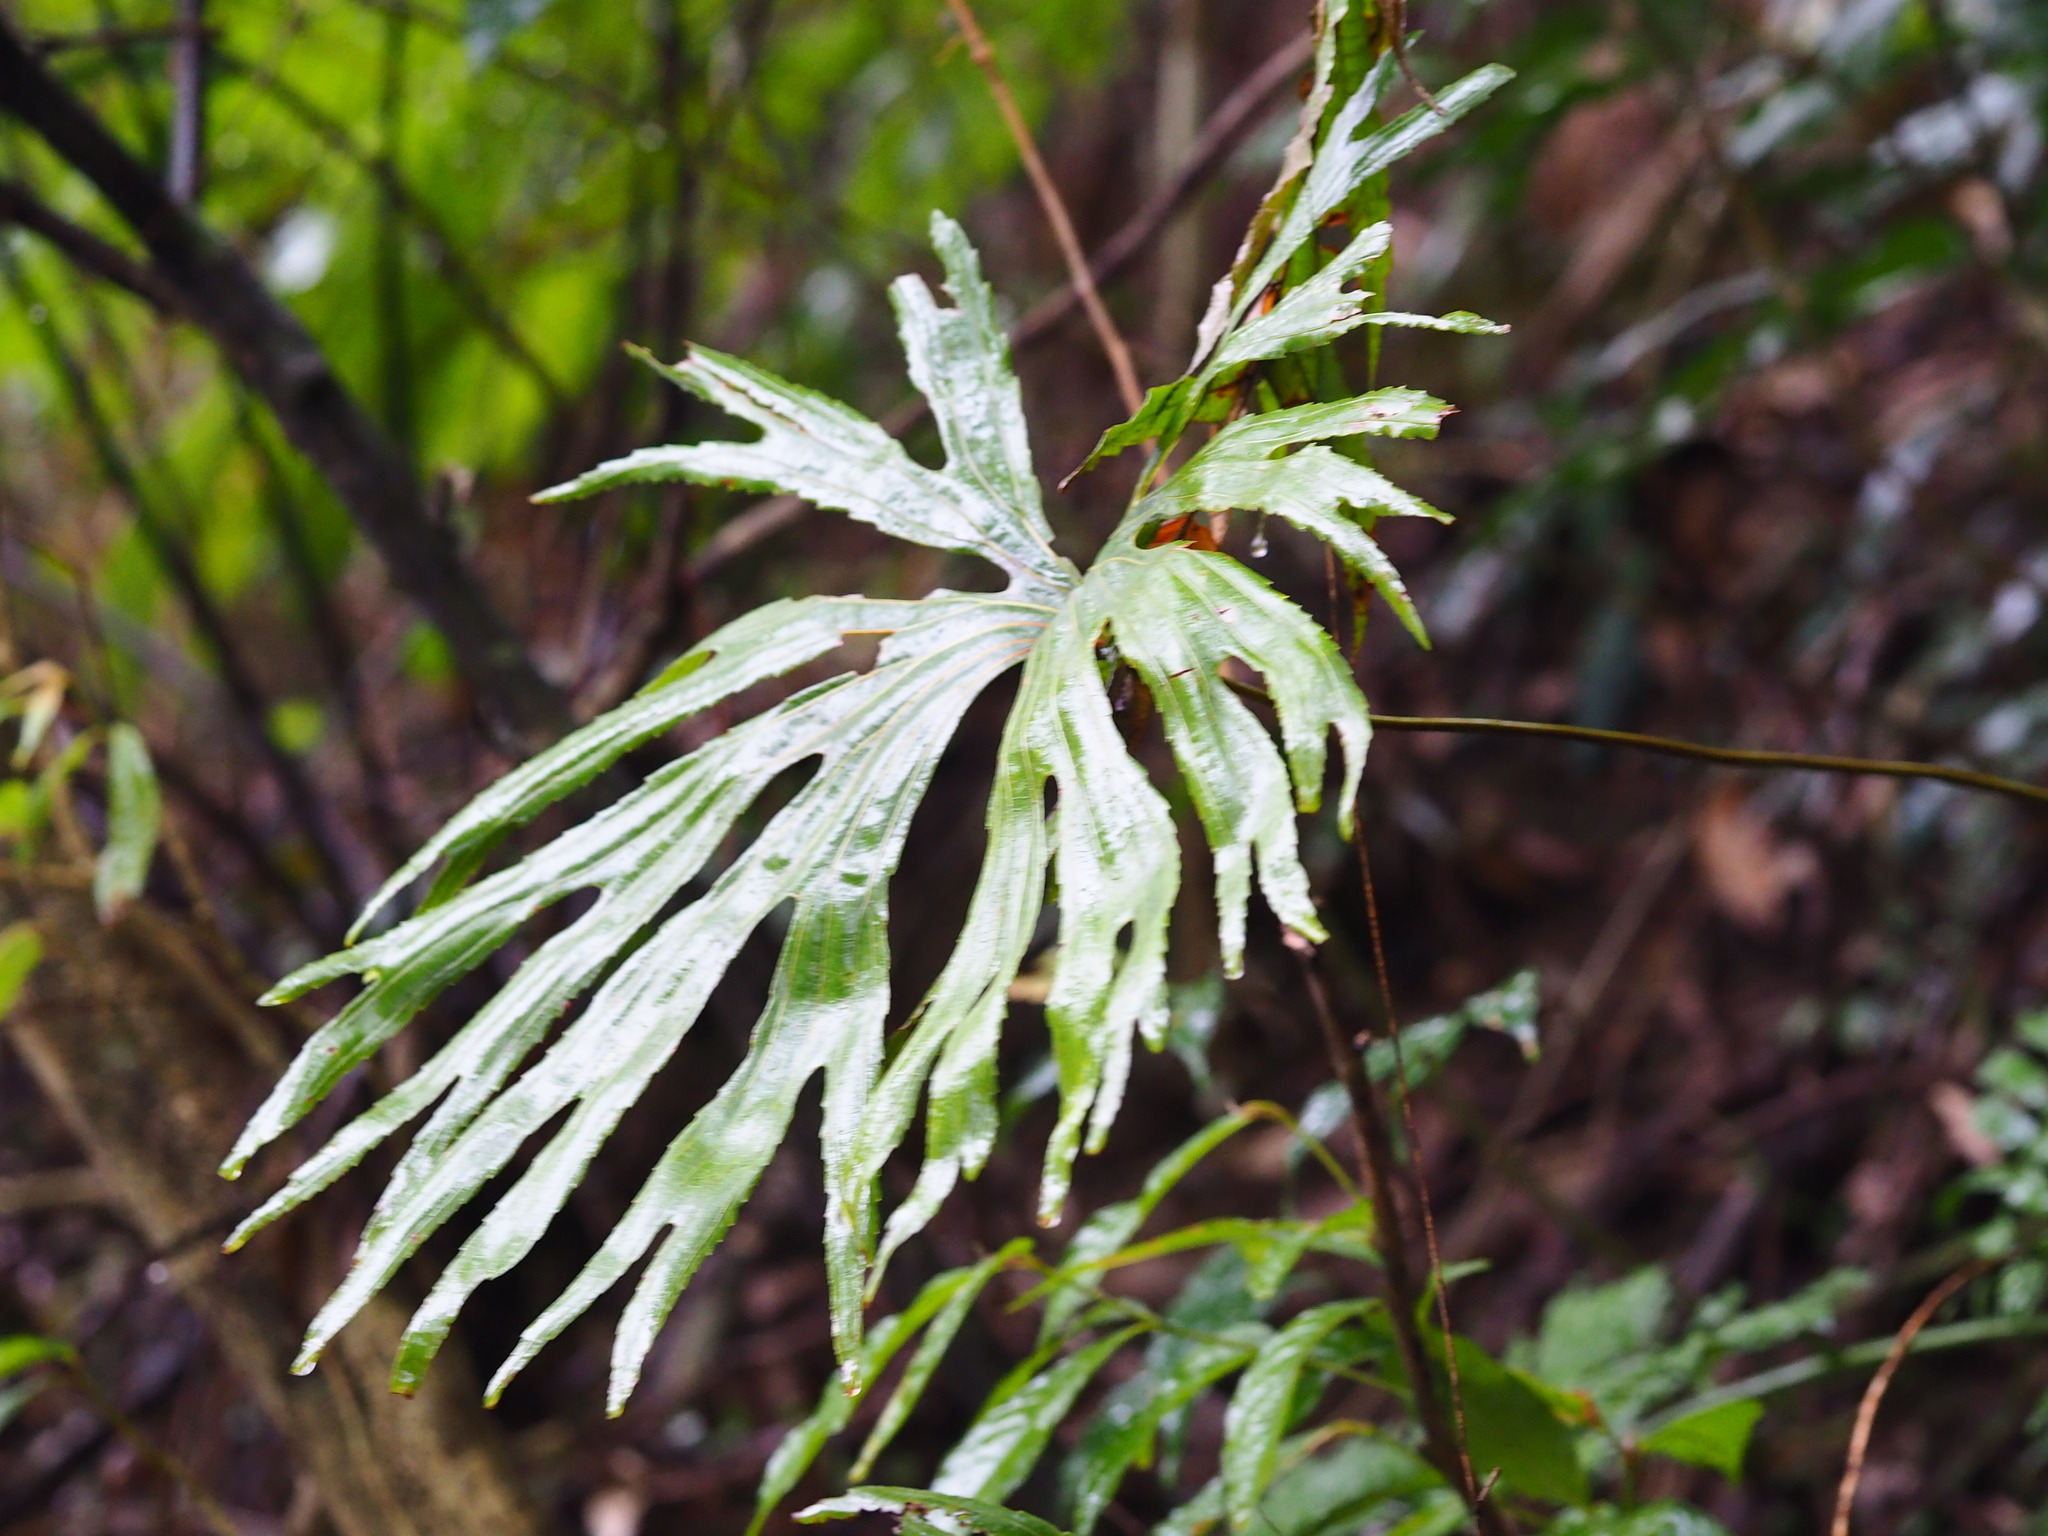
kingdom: Plantae
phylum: Tracheophyta
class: Polypodiopsida
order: Gleicheniales
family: Dipteridaceae
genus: Dipteris
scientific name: Dipteris conjugata
